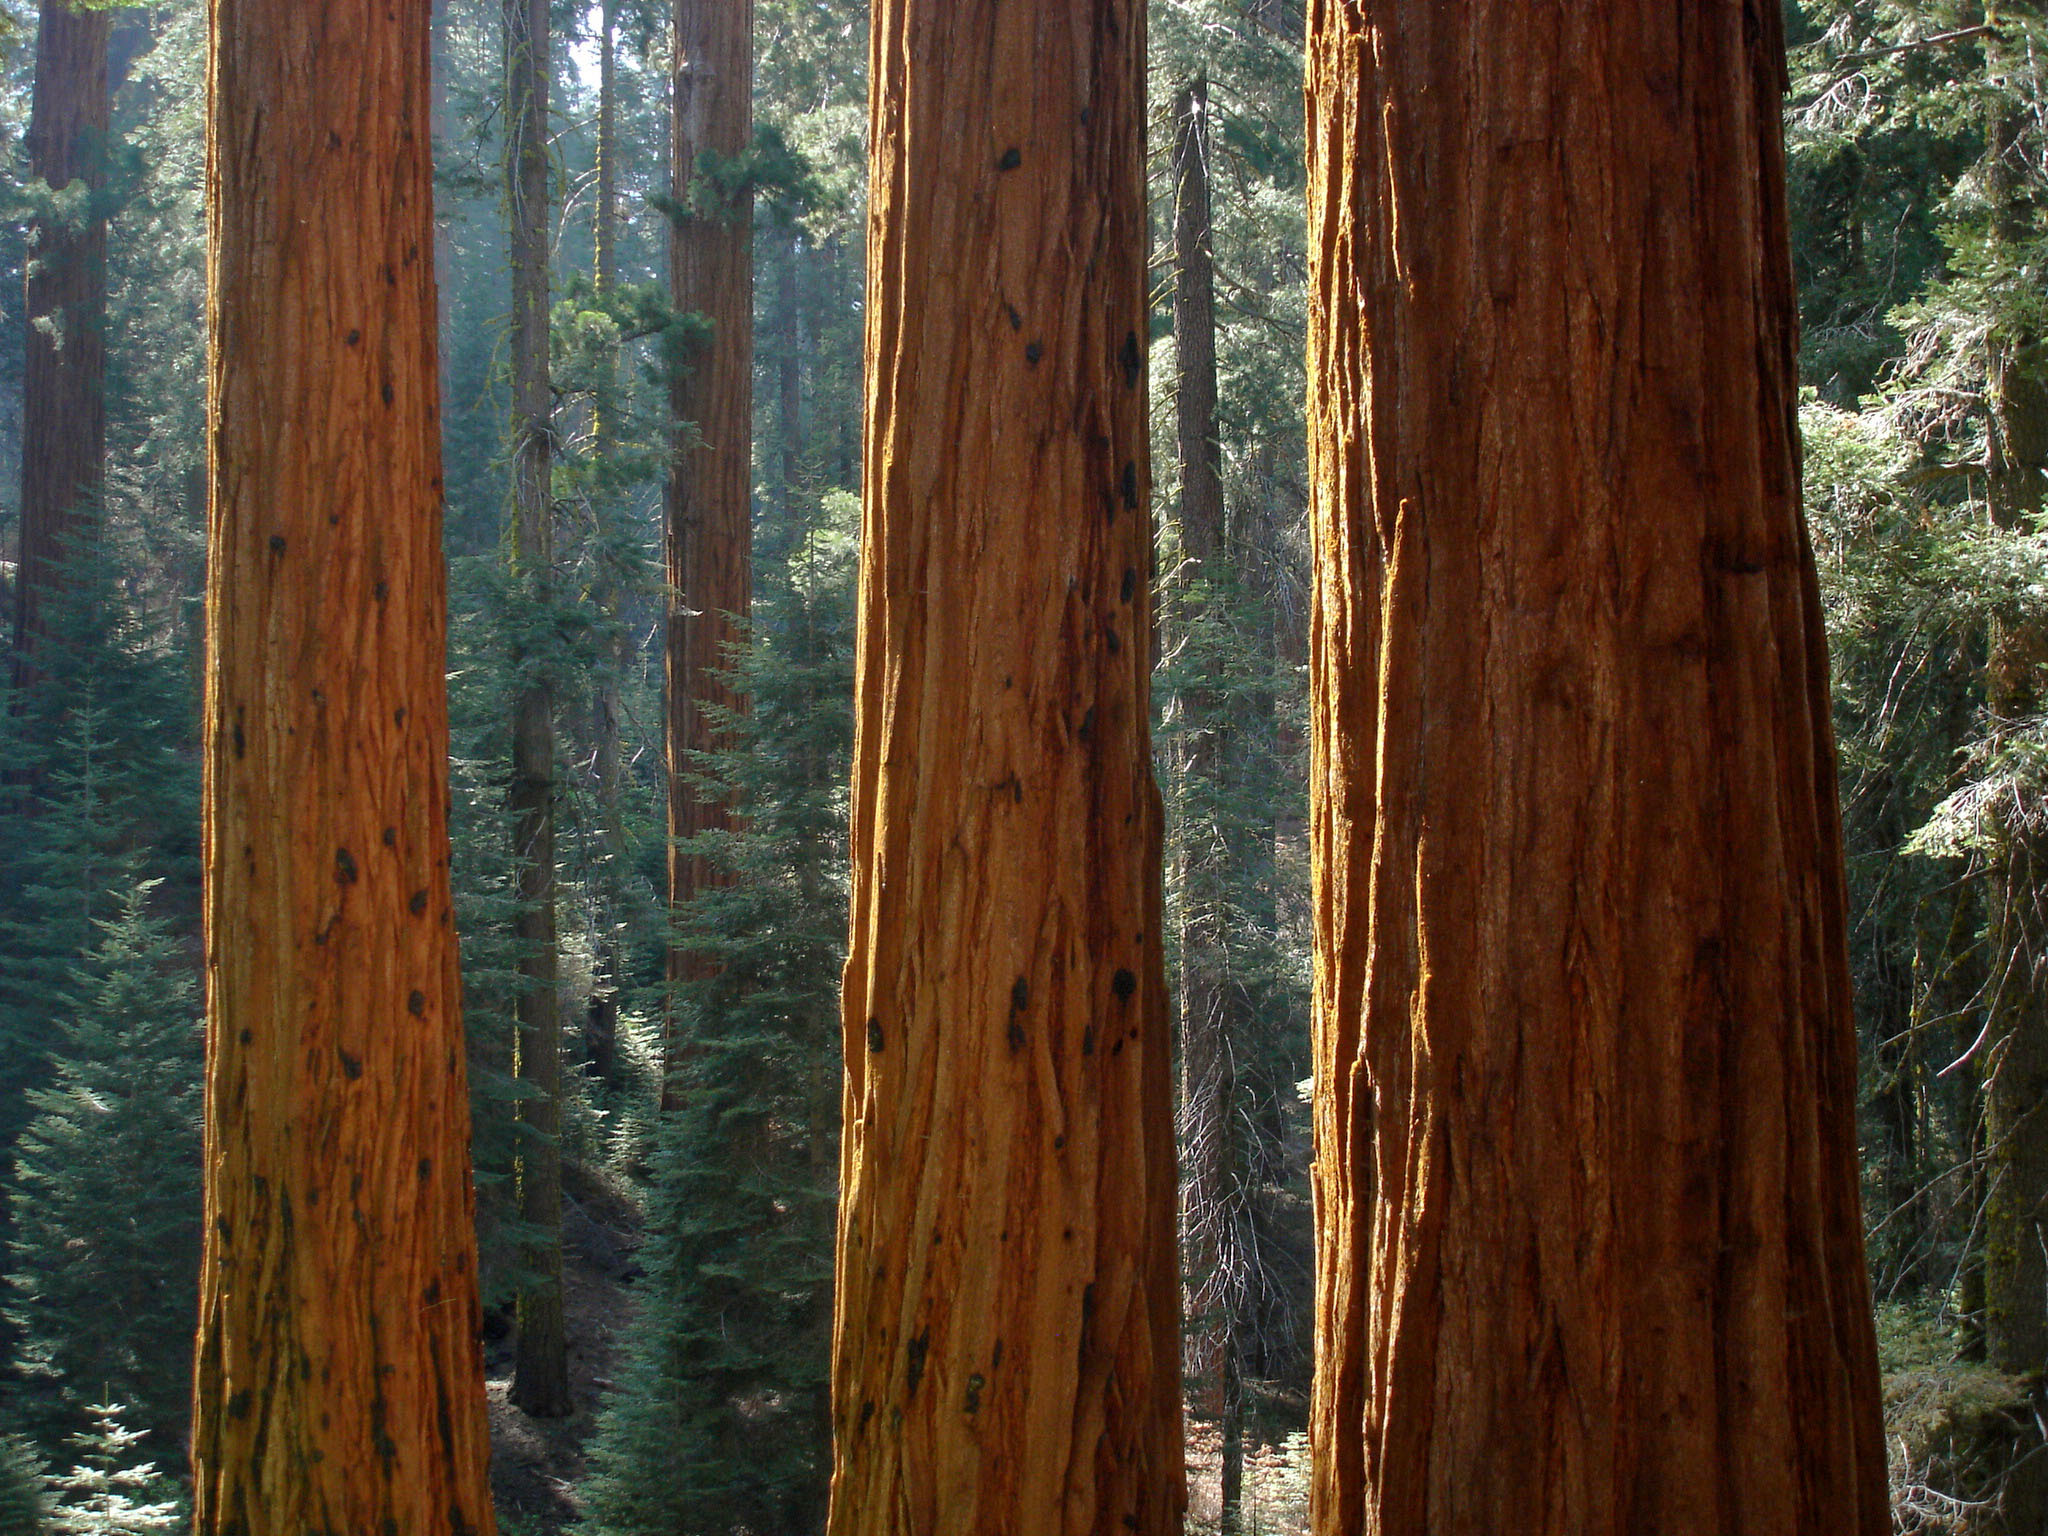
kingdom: Plantae
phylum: Tracheophyta
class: Pinopsida
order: Pinales
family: Cupressaceae
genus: Sequoiadendron
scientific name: Sequoiadendron giganteum
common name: Wellingtonia
